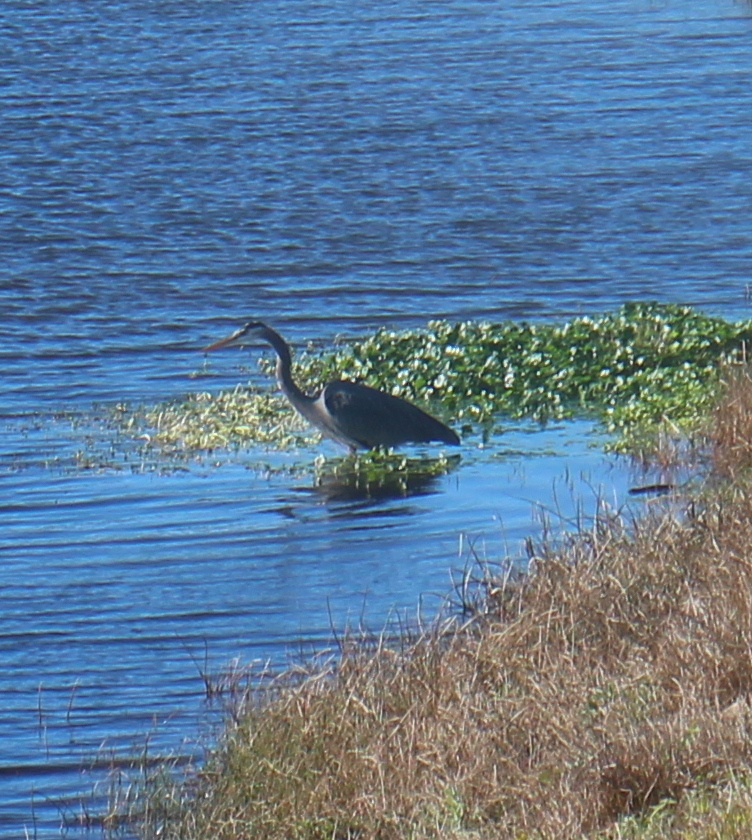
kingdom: Animalia
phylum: Chordata
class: Aves
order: Pelecaniformes
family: Ardeidae
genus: Ardea
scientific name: Ardea herodias
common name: Great blue heron
